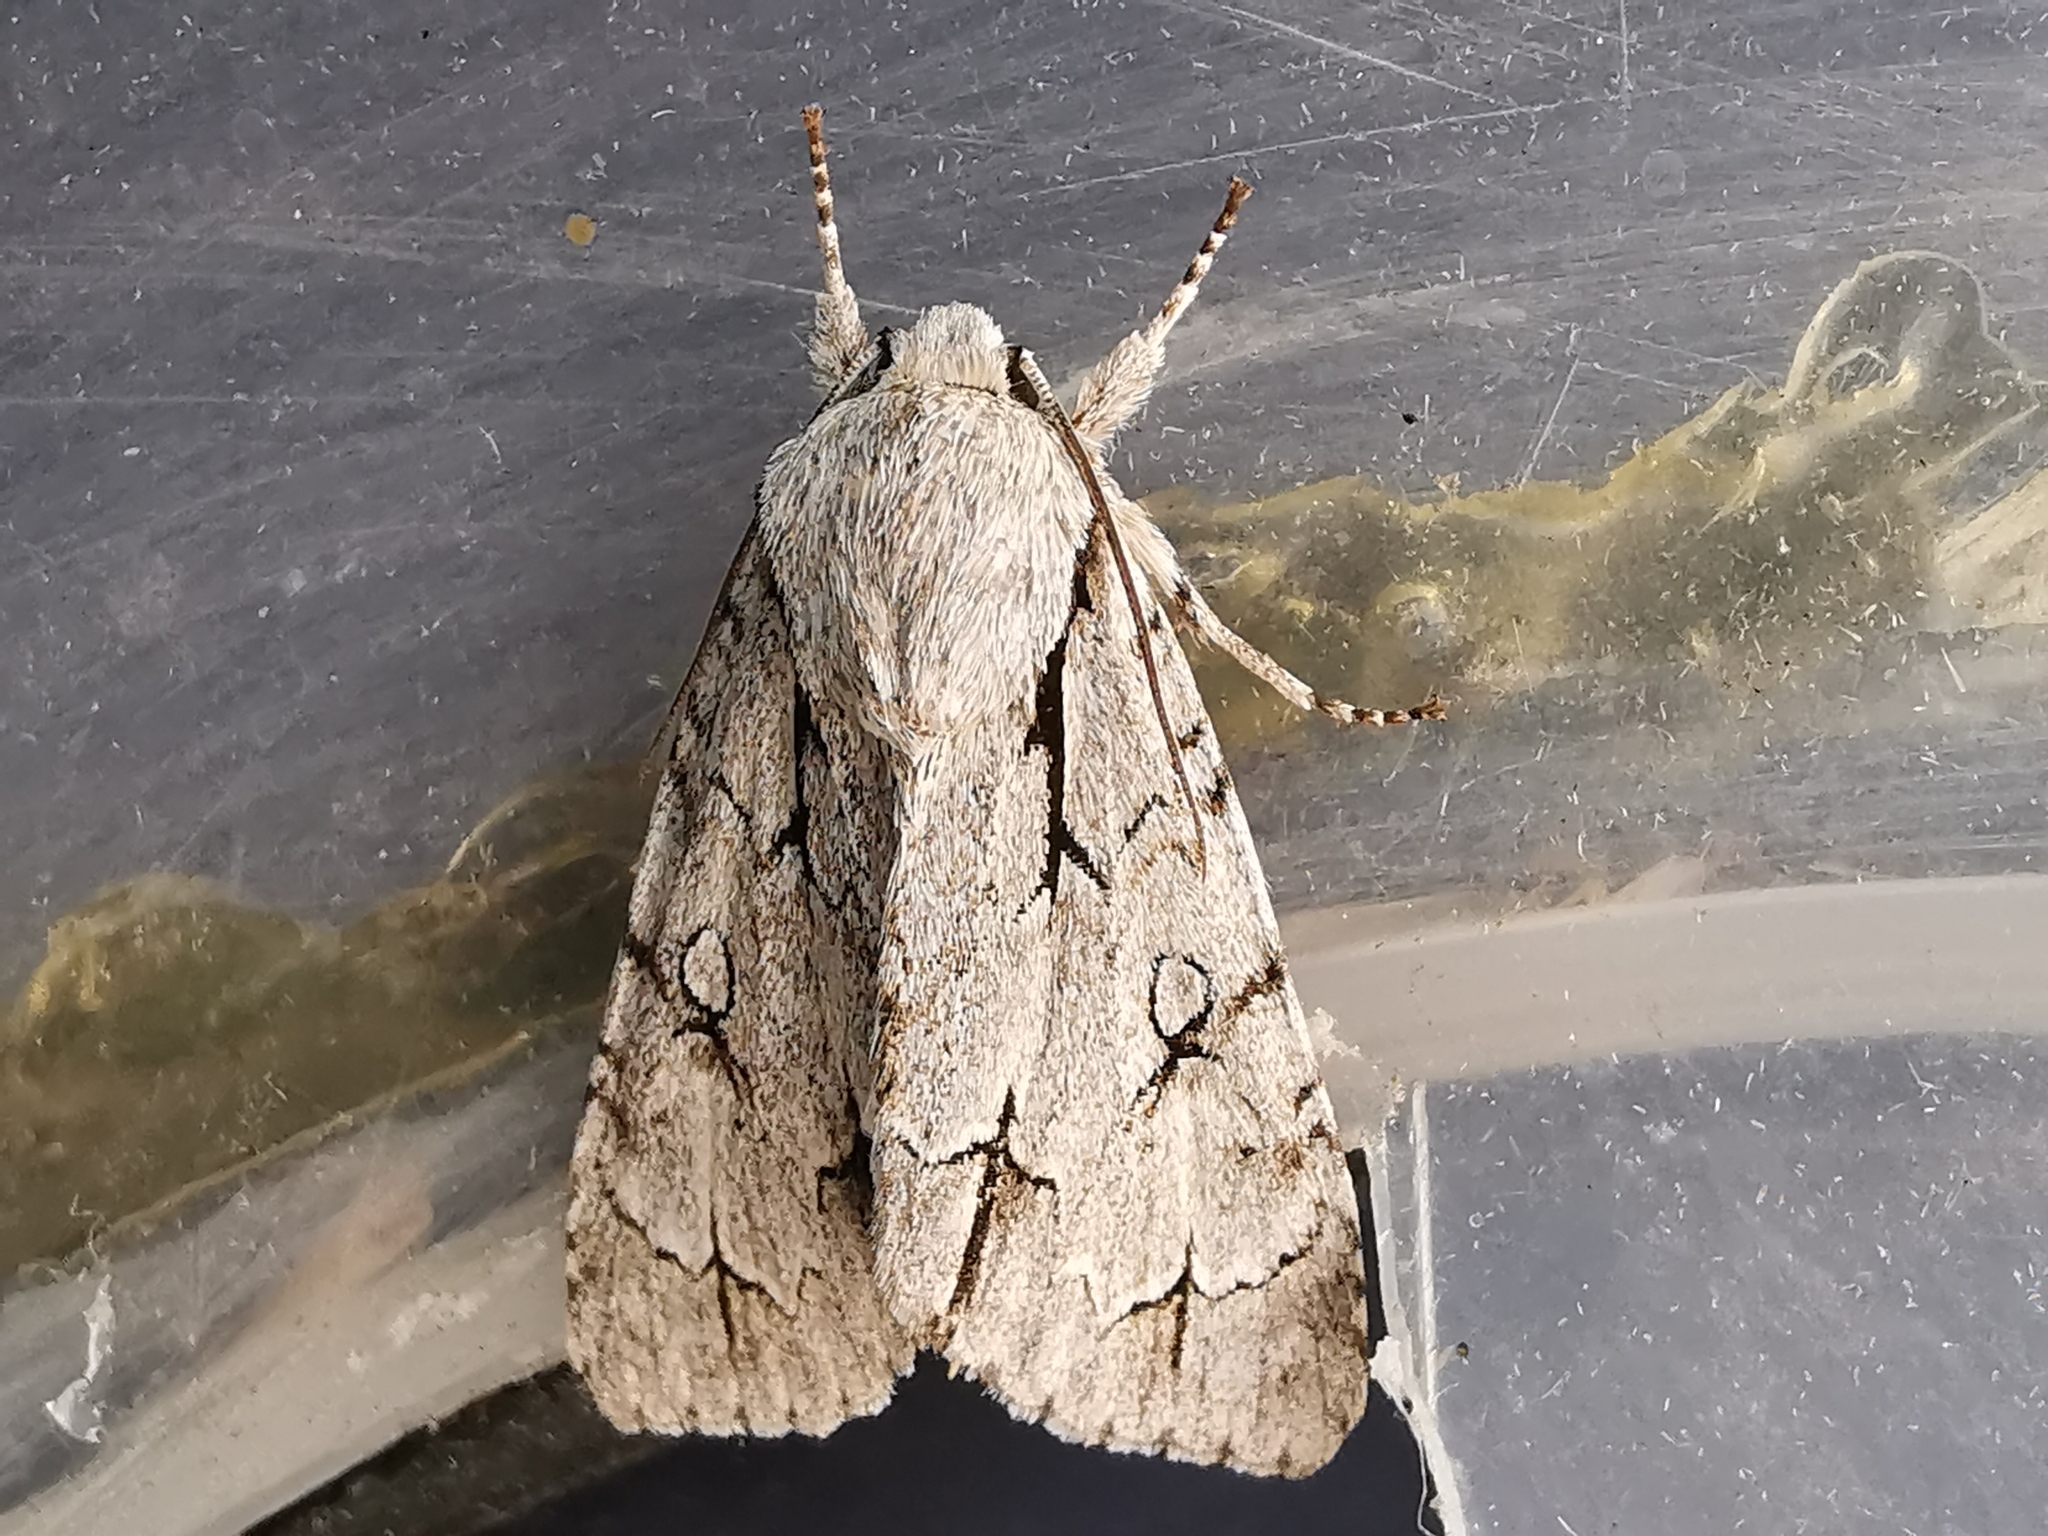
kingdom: Animalia
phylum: Arthropoda
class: Insecta
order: Lepidoptera
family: Noctuidae
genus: Acronicta
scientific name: Acronicta psi
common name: Grey dagger
